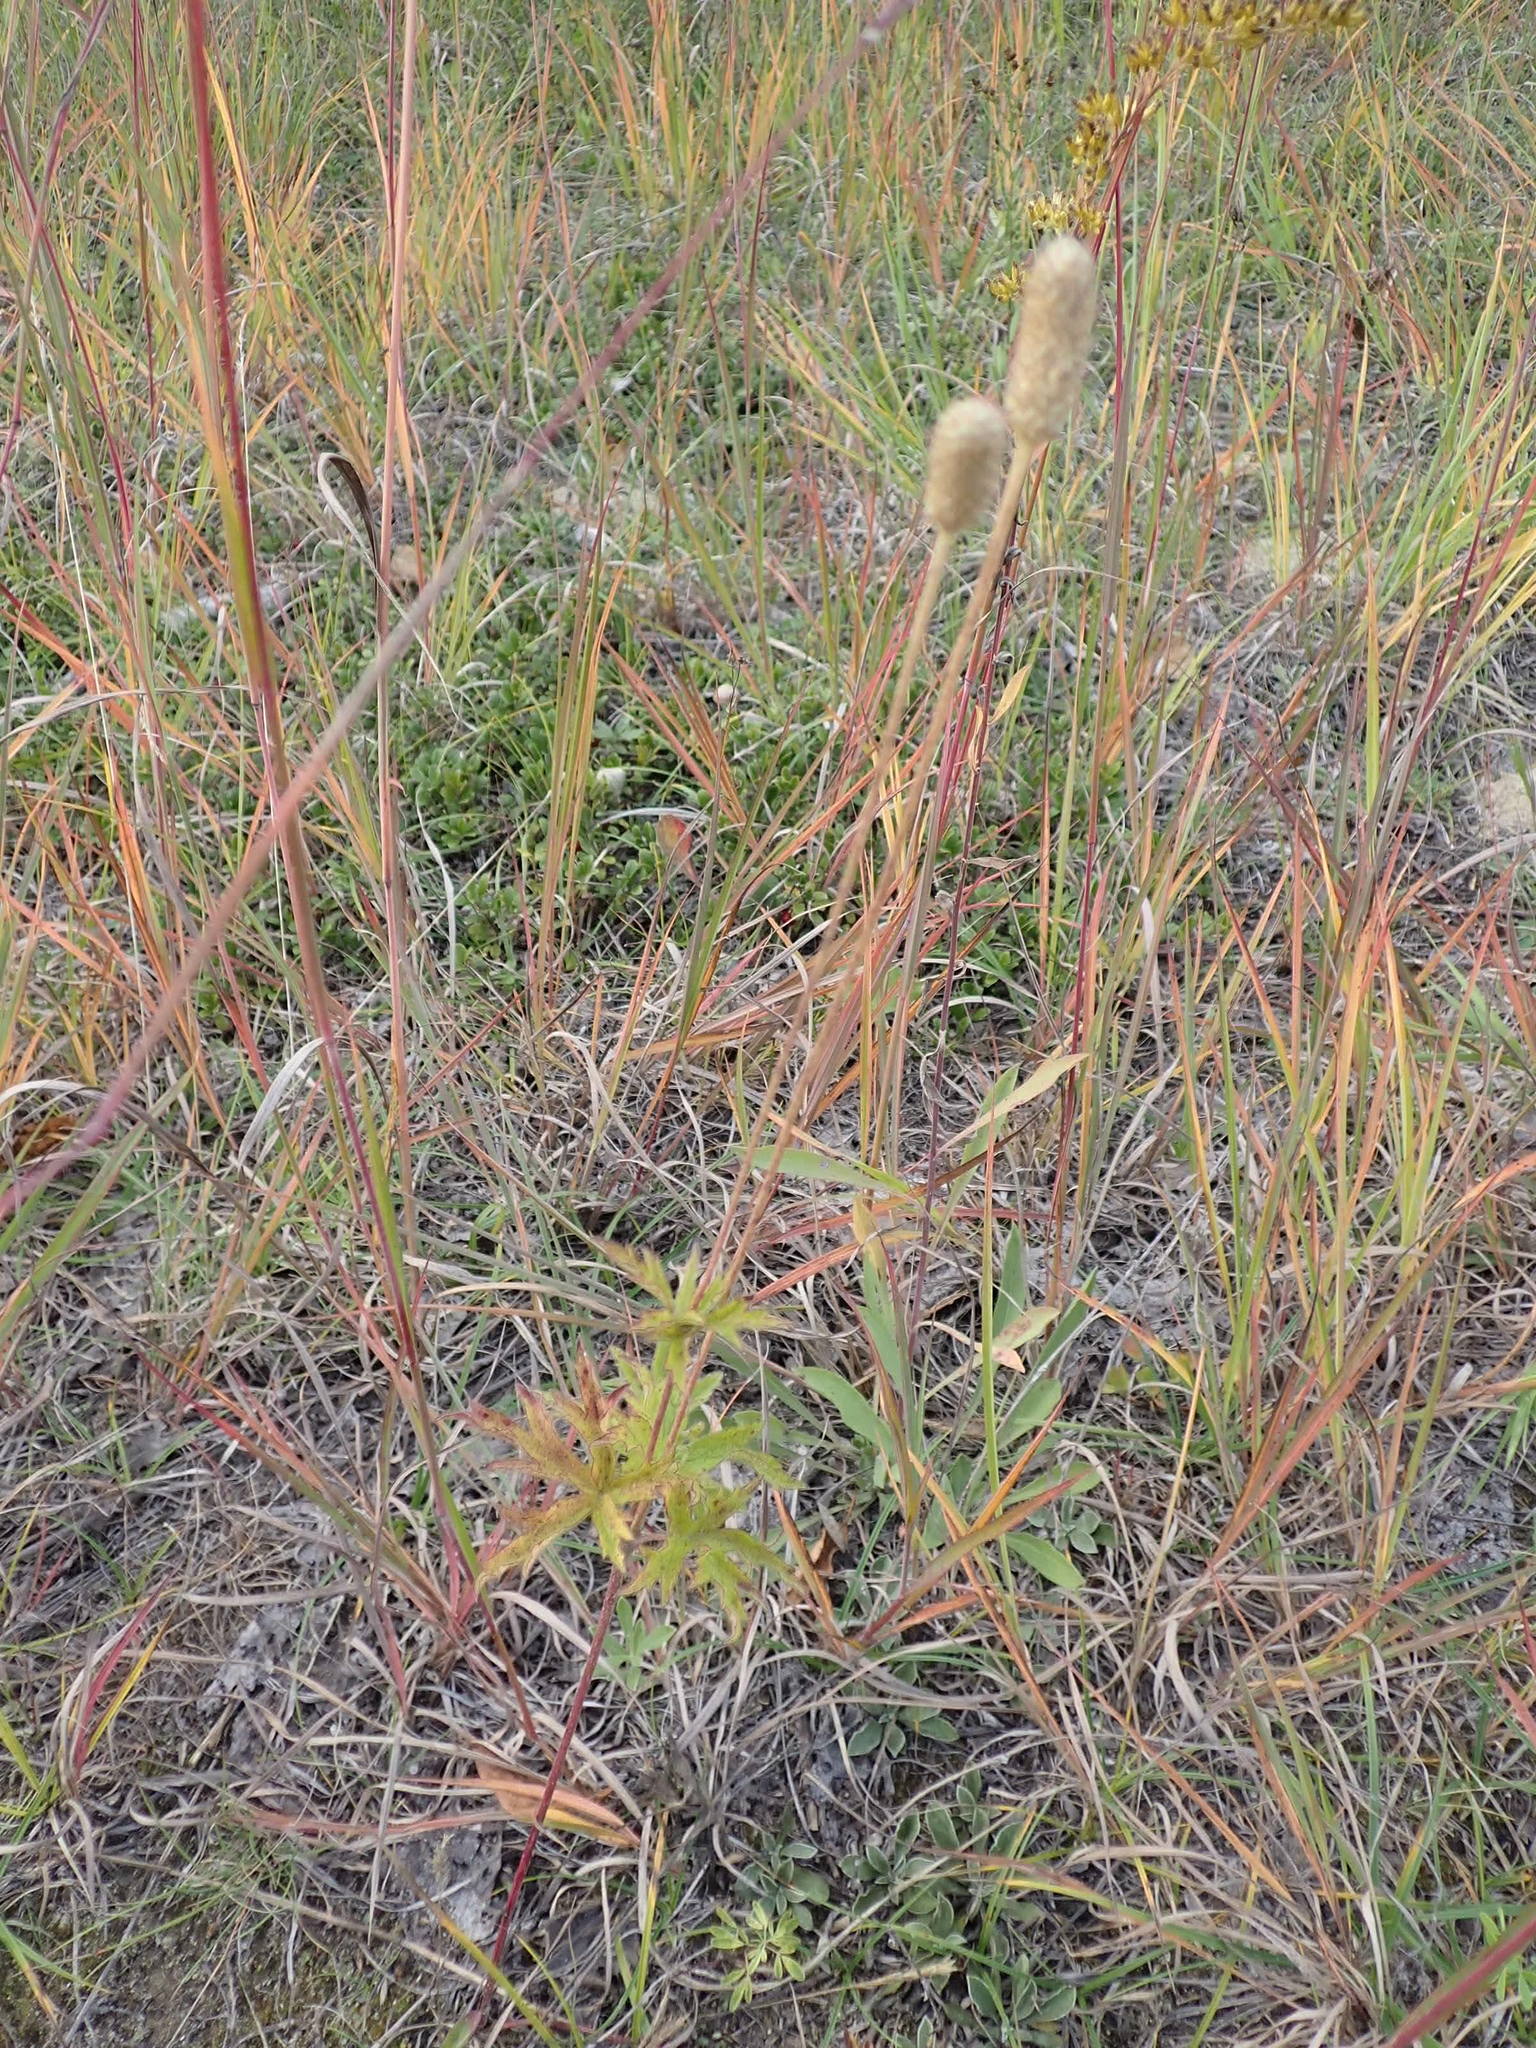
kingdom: Plantae
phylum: Tracheophyta
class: Magnoliopsida
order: Ranunculales
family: Ranunculaceae
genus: Anemone
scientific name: Anemone cylindrica
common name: Candle anemone
